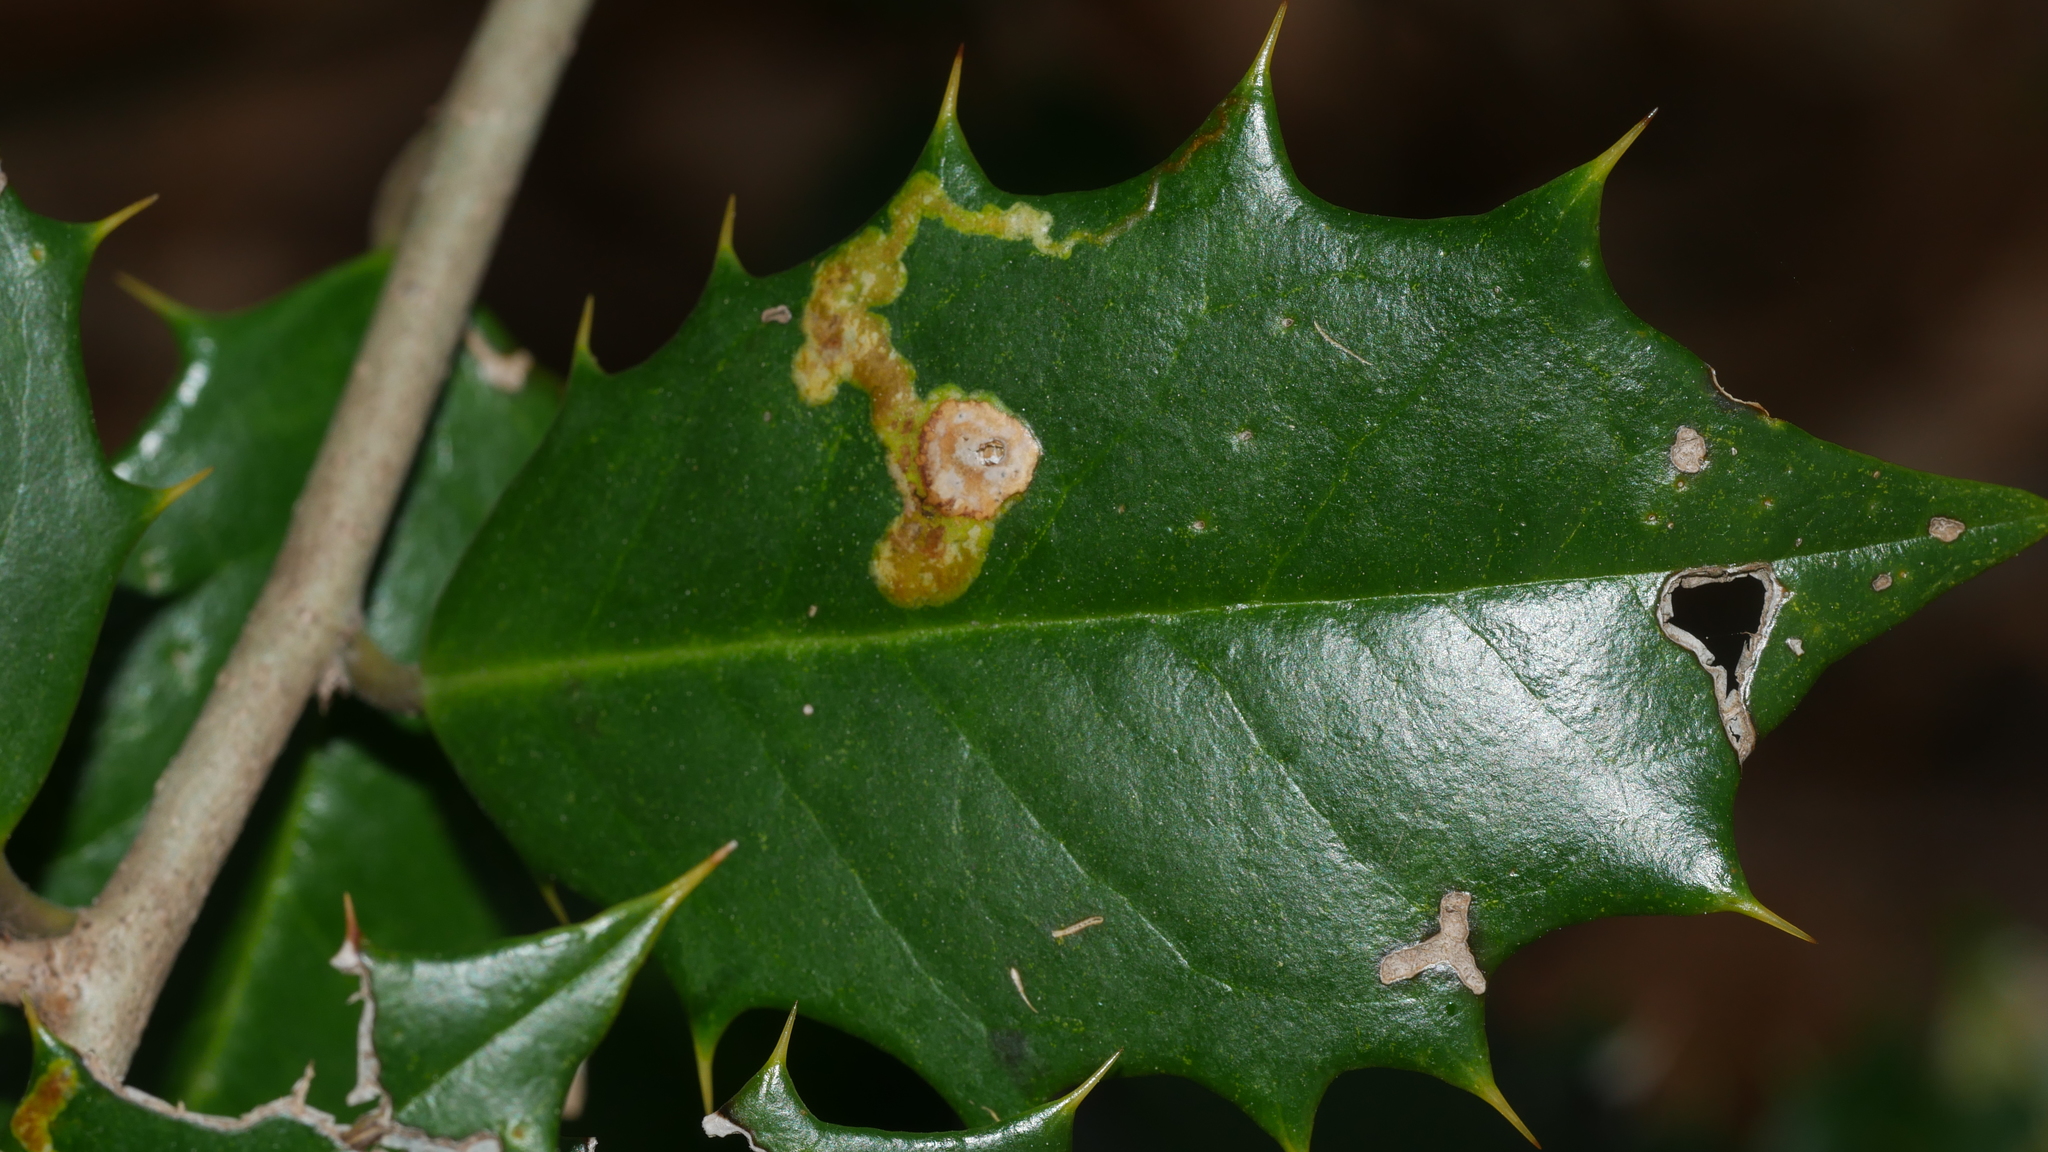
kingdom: Animalia
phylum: Arthropoda
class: Insecta
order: Diptera
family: Agromyzidae
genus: Phytomyza
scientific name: Phytomyza ilicicola
